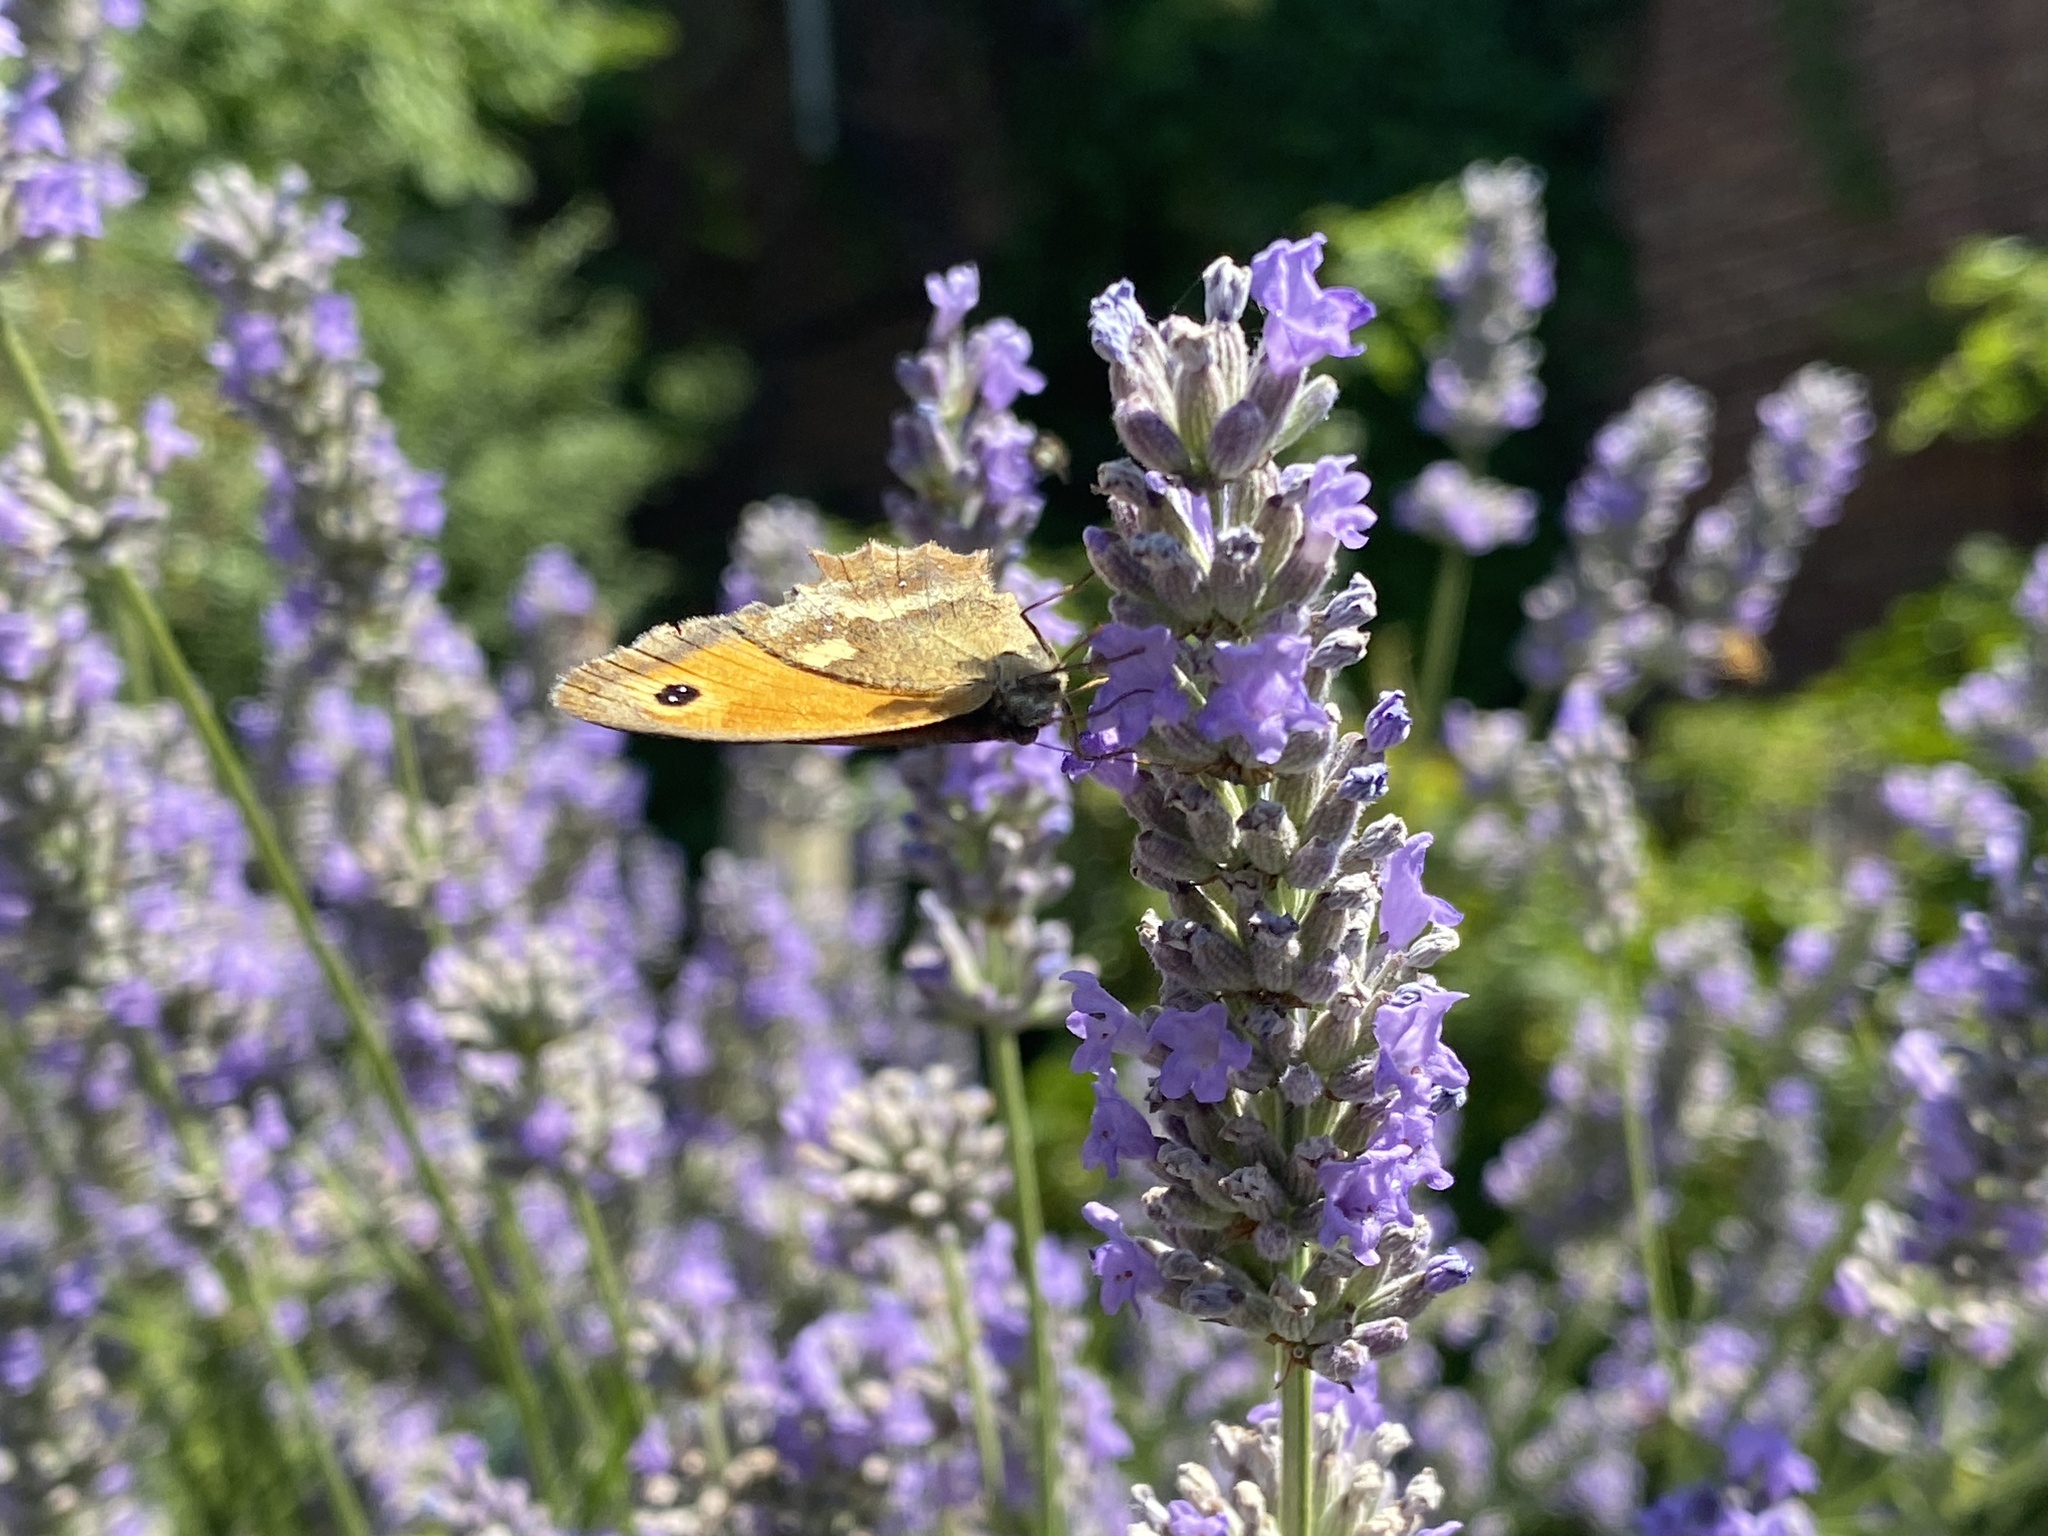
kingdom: Animalia
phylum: Arthropoda
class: Insecta
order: Lepidoptera
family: Nymphalidae
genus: Pyronia
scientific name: Pyronia tithonus
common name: Gatekeeper
